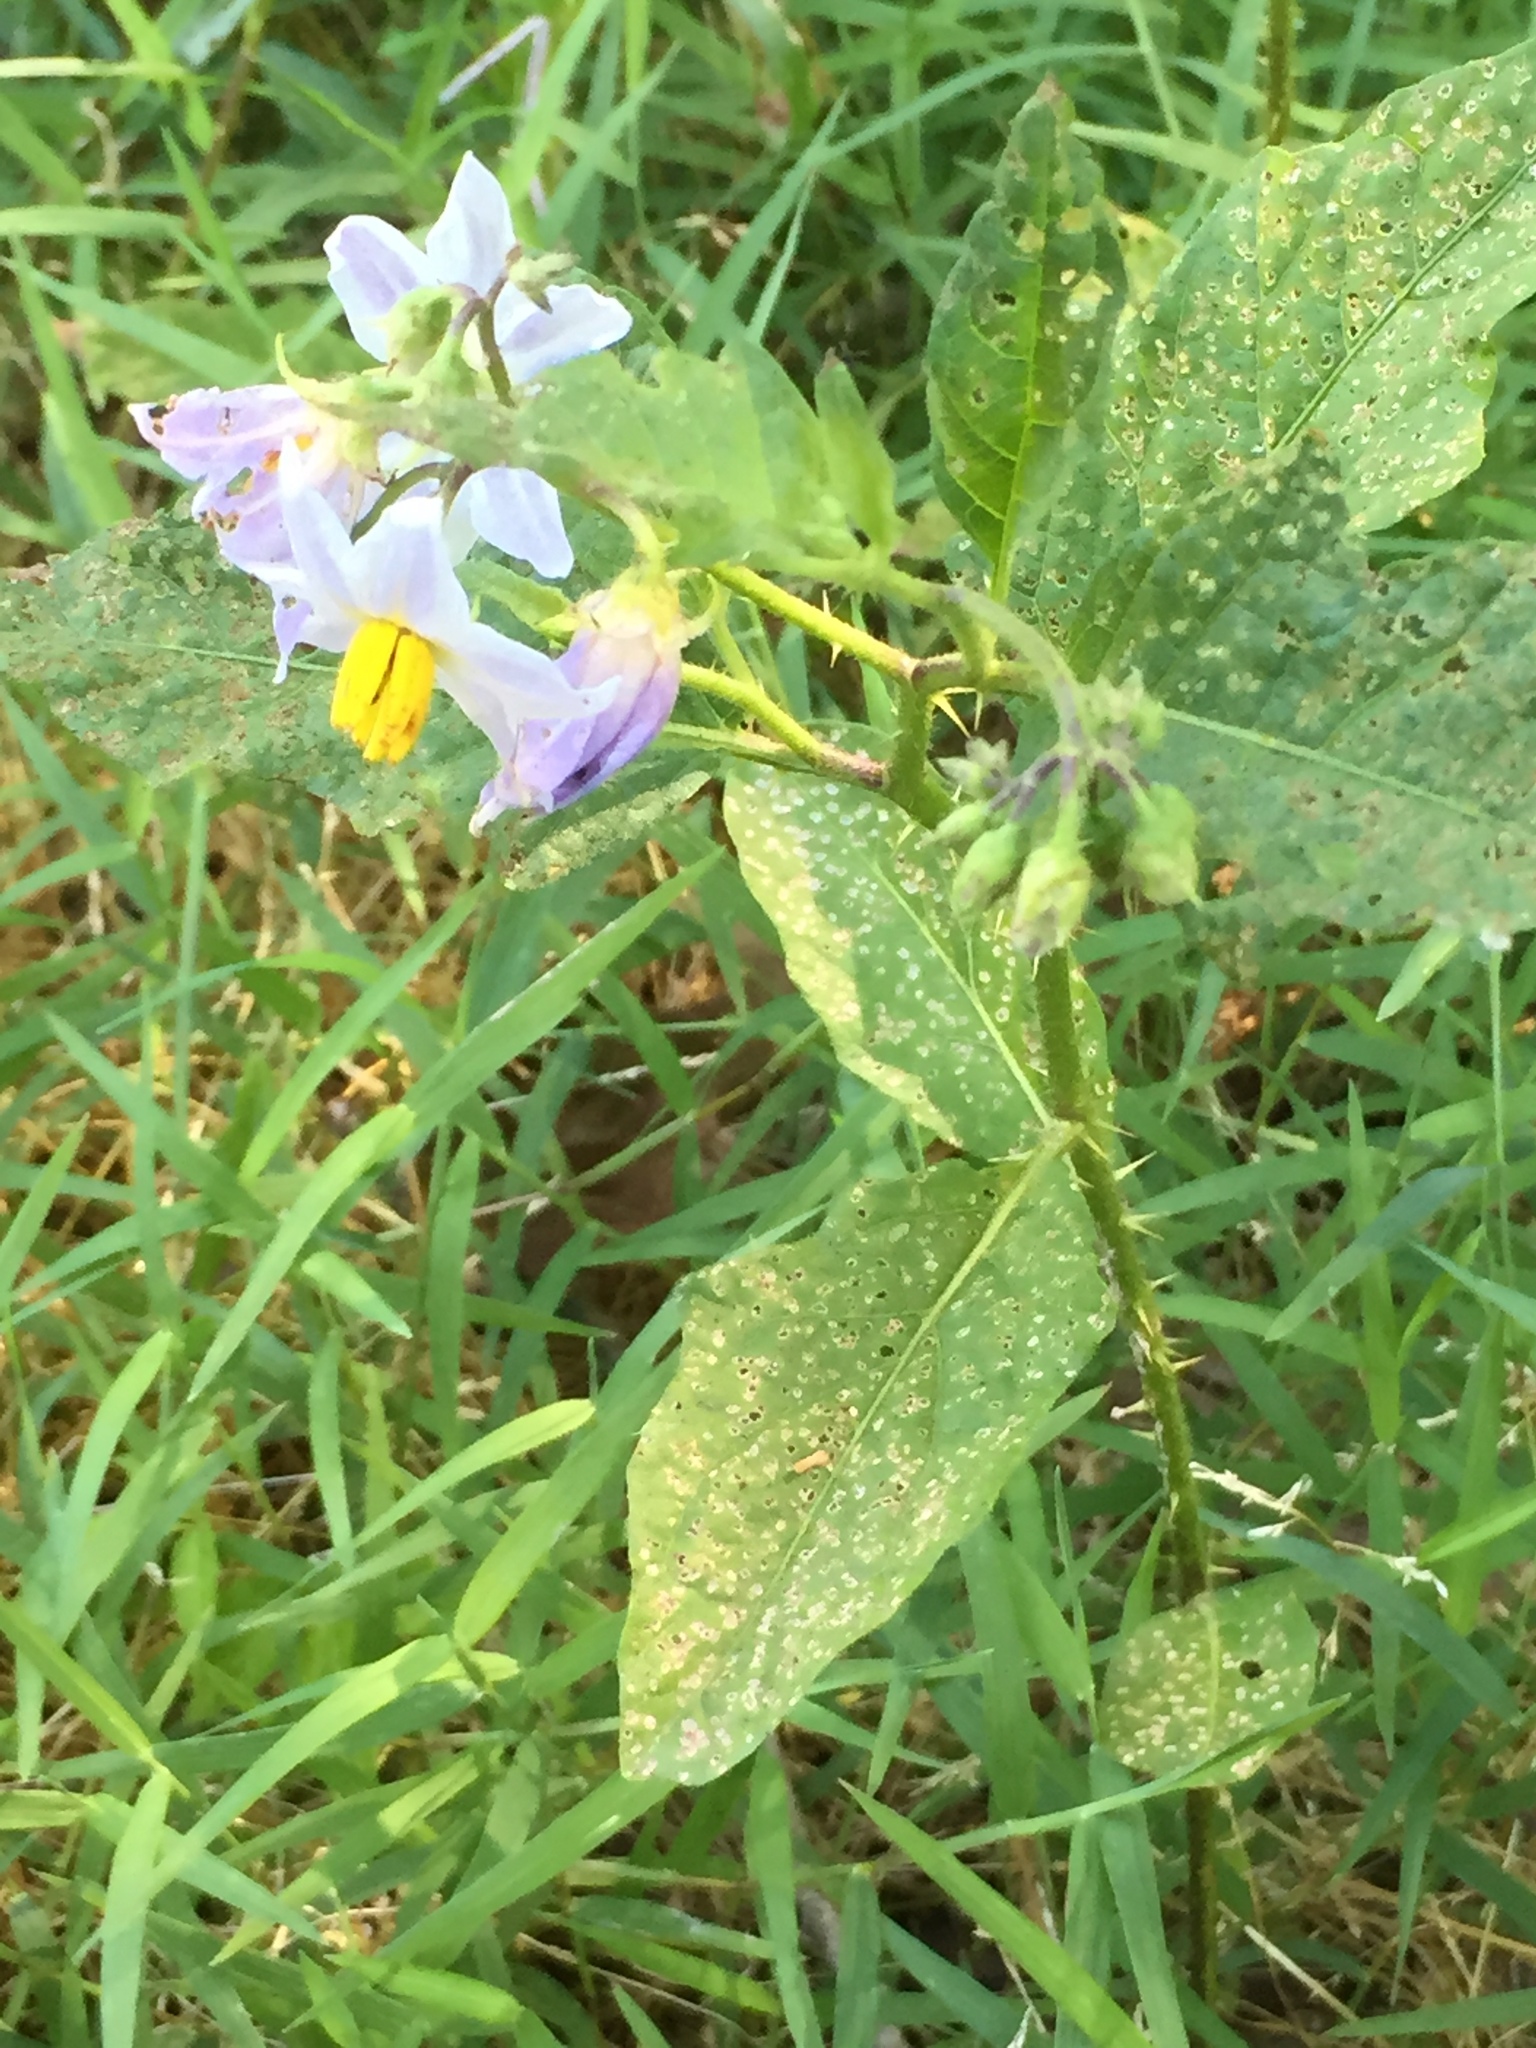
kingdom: Plantae
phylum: Tracheophyta
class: Magnoliopsida
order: Solanales
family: Solanaceae
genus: Solanum
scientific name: Solanum carolinense
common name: Horse-nettle
